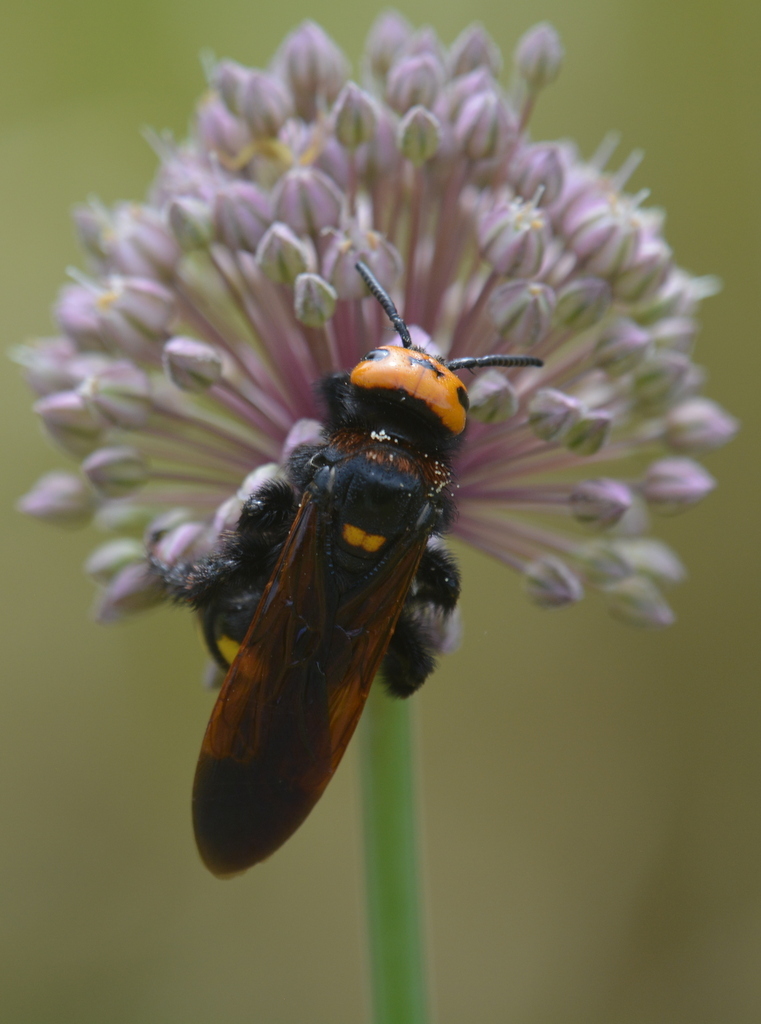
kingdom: Animalia
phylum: Arthropoda
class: Insecta
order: Hymenoptera
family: Scoliidae
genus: Megascolia
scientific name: Megascolia maculata
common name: Mammoth wasp
